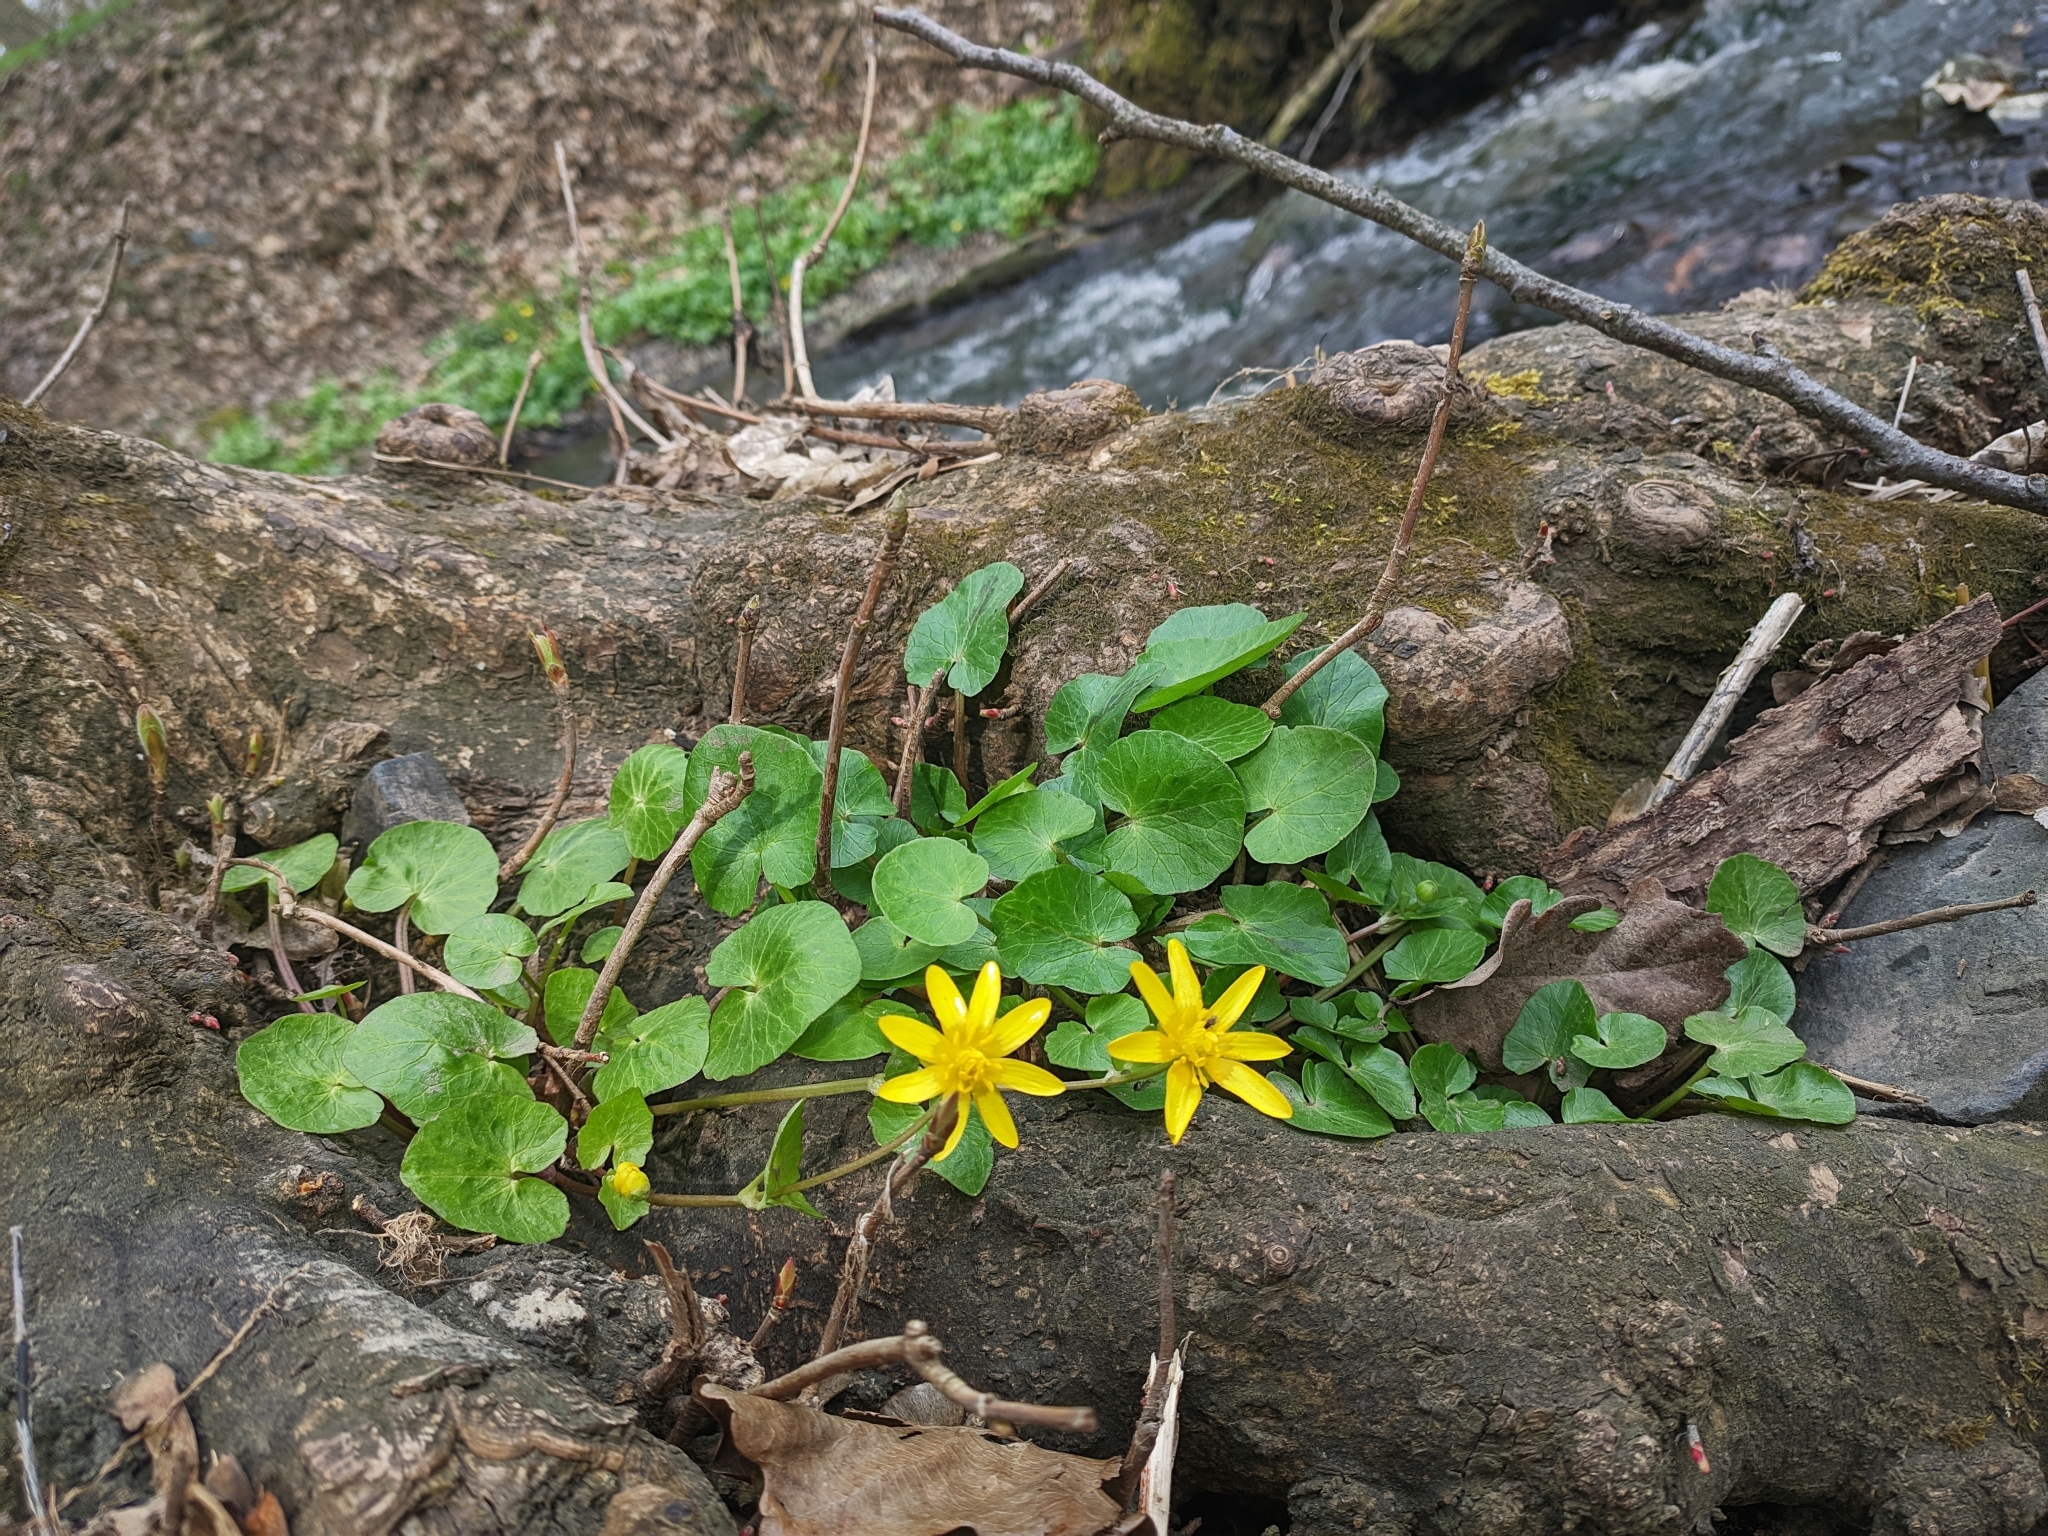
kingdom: Plantae
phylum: Tracheophyta
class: Magnoliopsida
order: Ranunculales
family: Ranunculaceae
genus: Ficaria
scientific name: Ficaria verna
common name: Lesser celandine
